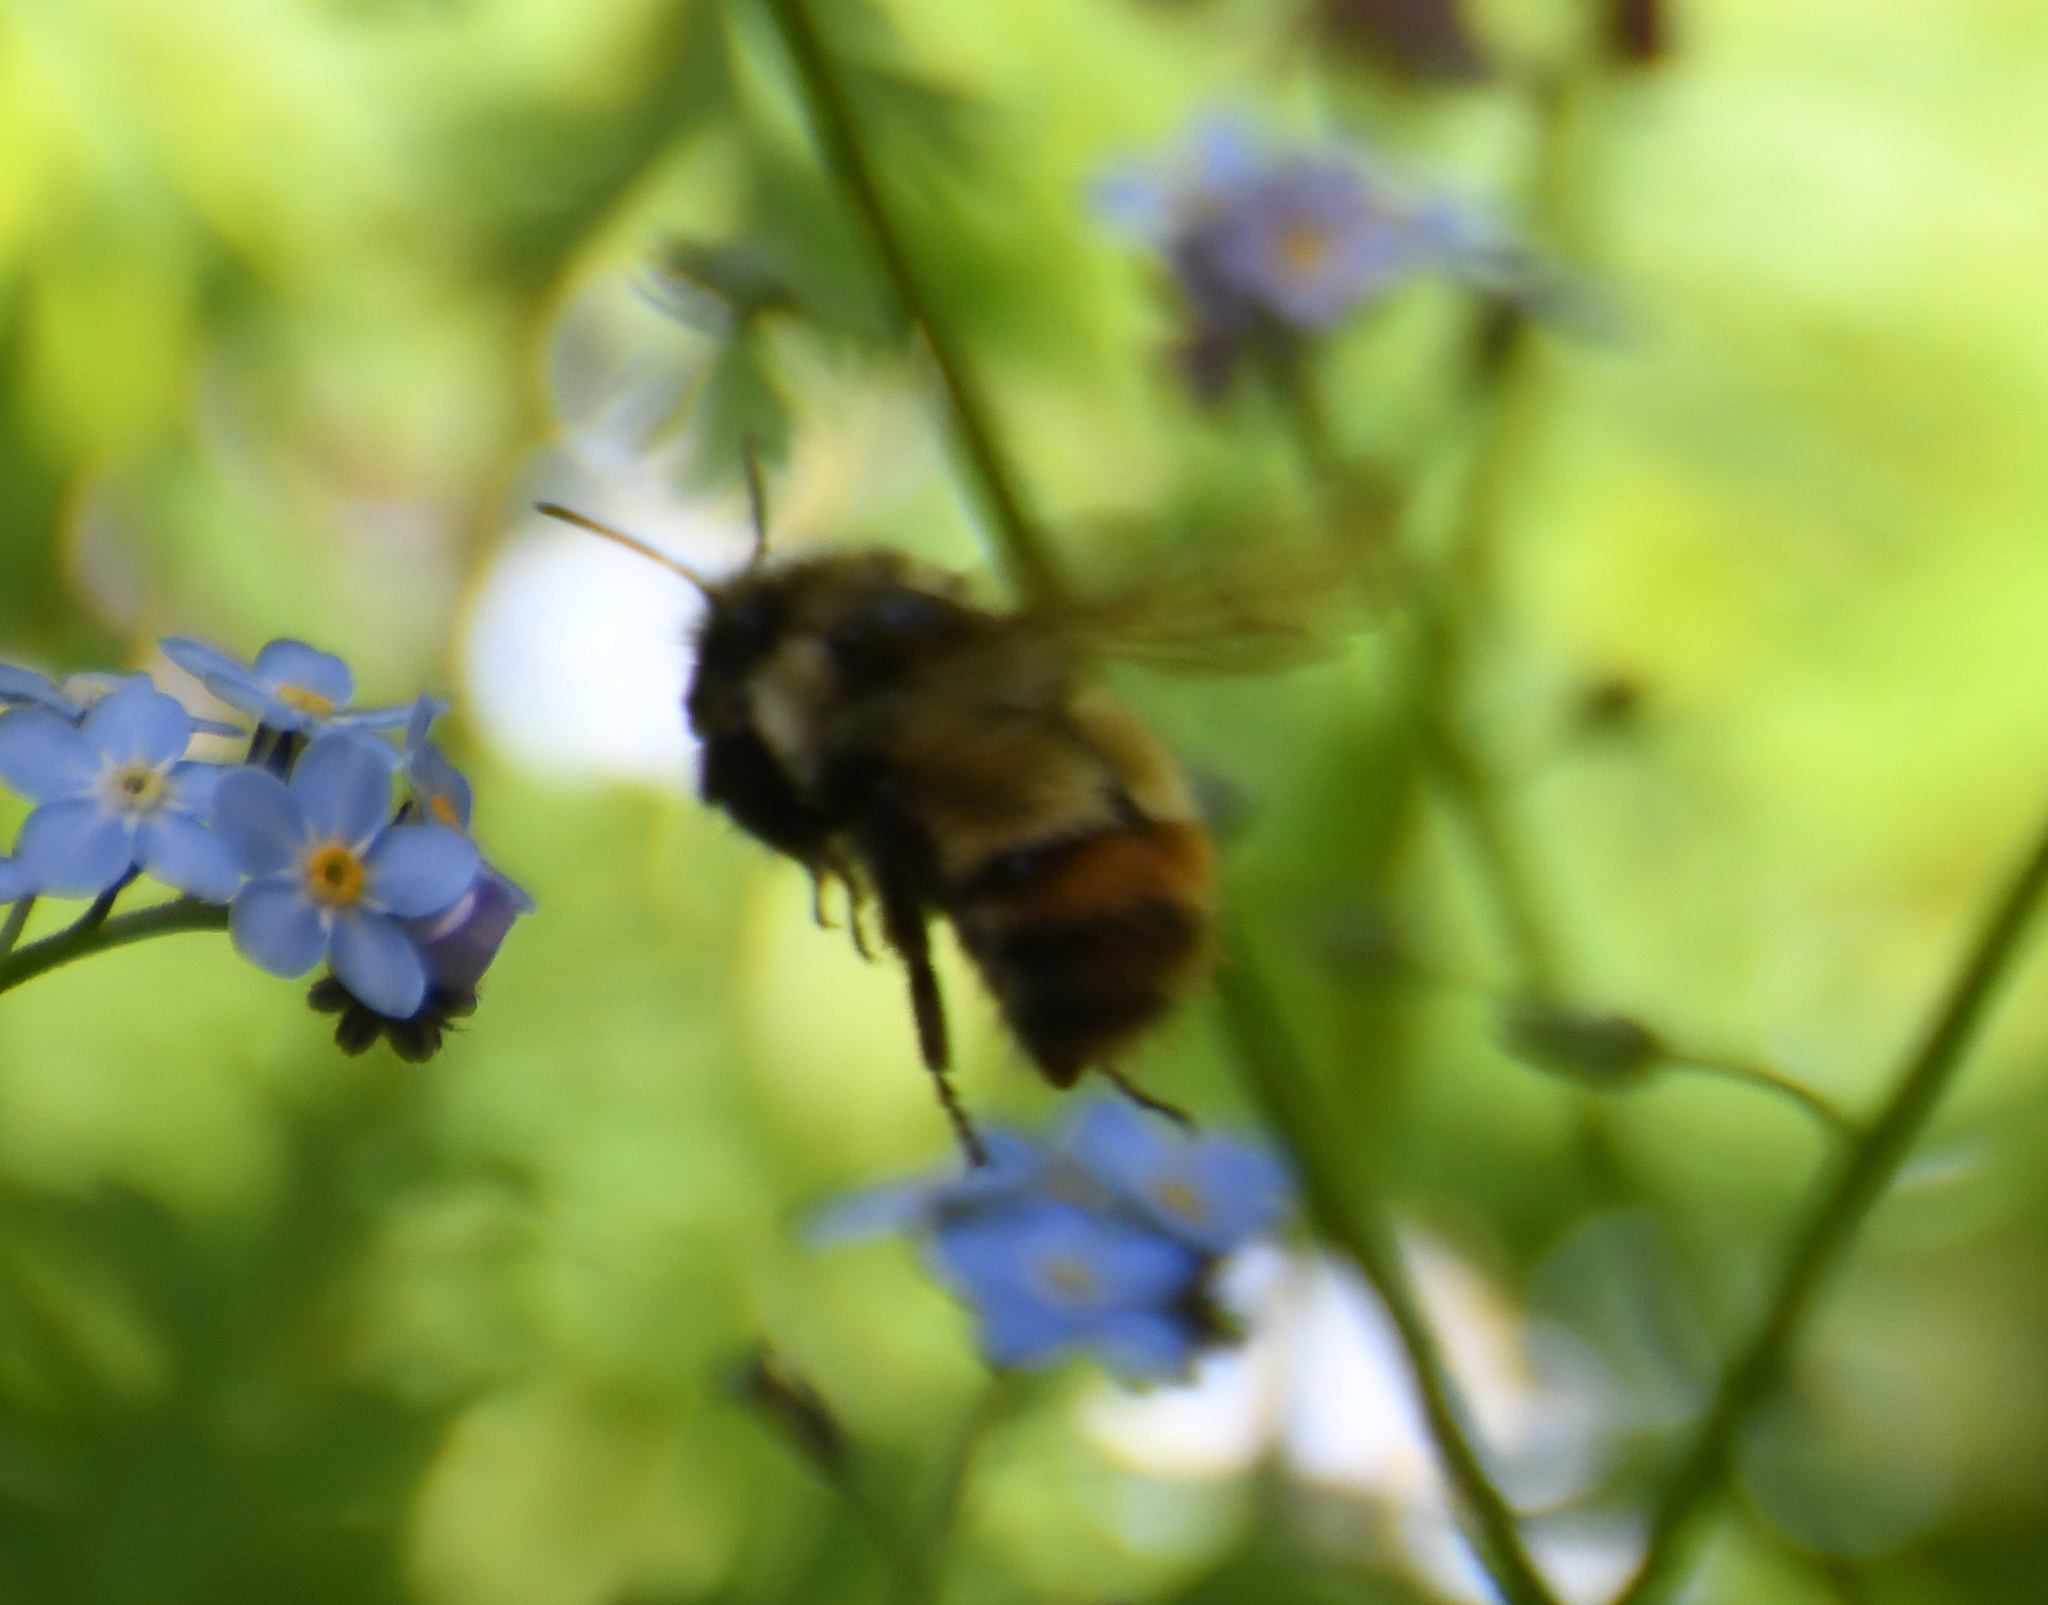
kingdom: Animalia
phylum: Arthropoda
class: Insecta
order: Hymenoptera
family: Apidae
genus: Bombus
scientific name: Bombus flavifrons
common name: Yellow head bumble bee
